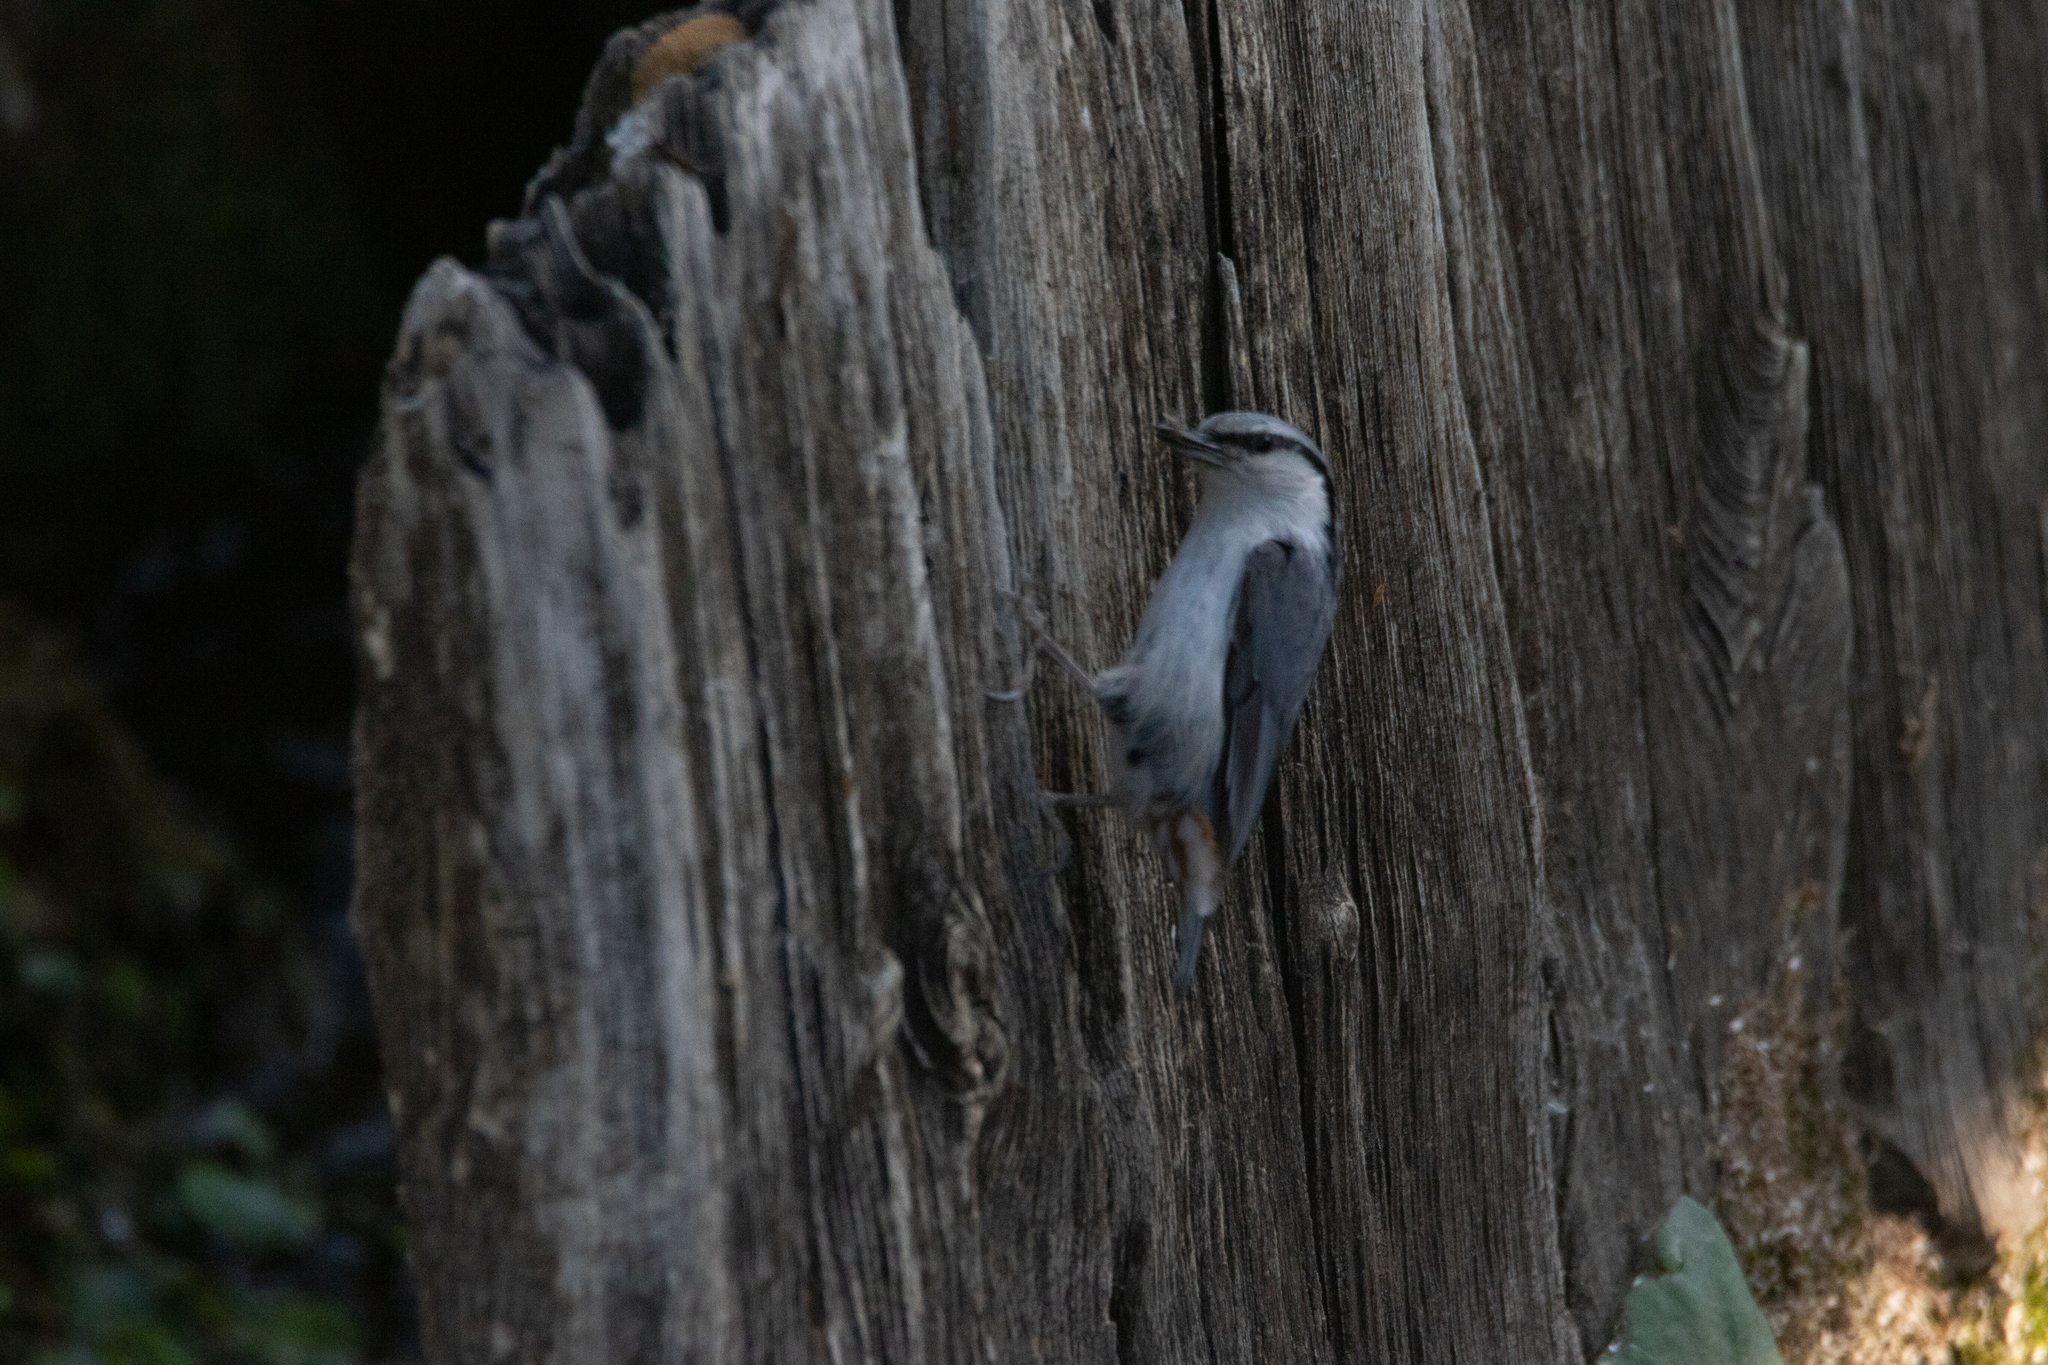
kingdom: Animalia
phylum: Chordata
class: Aves
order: Passeriformes
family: Sittidae
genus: Sitta
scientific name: Sitta europaea
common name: Eurasian nuthatch
